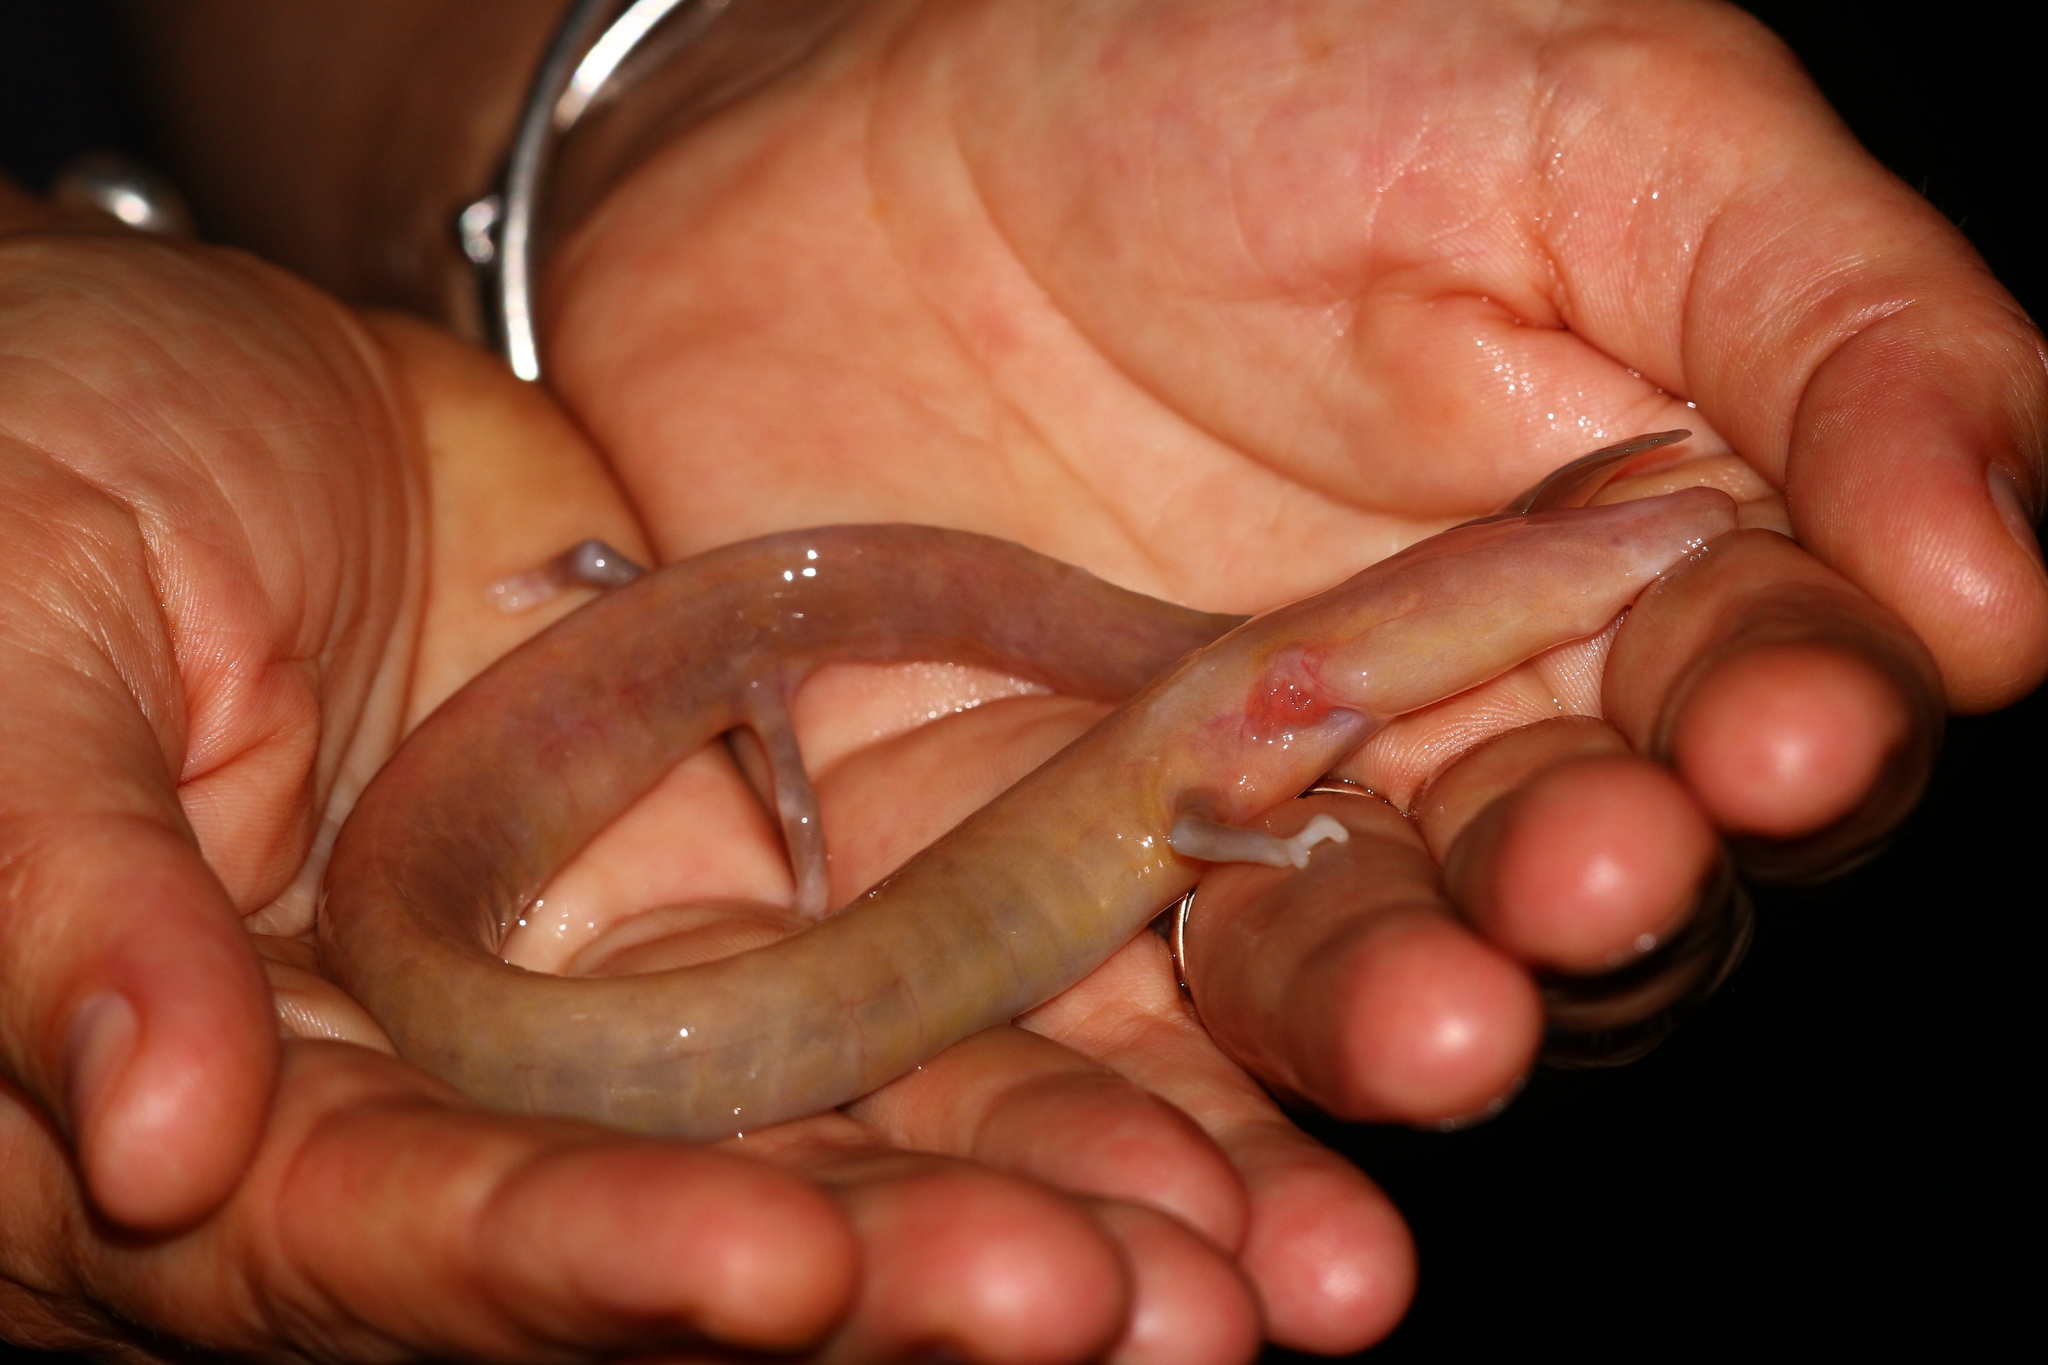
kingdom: Animalia
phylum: Chordata
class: Amphibia
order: Caudata
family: Proteidae
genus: Proteus
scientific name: Proteus anguinus
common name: Olm
